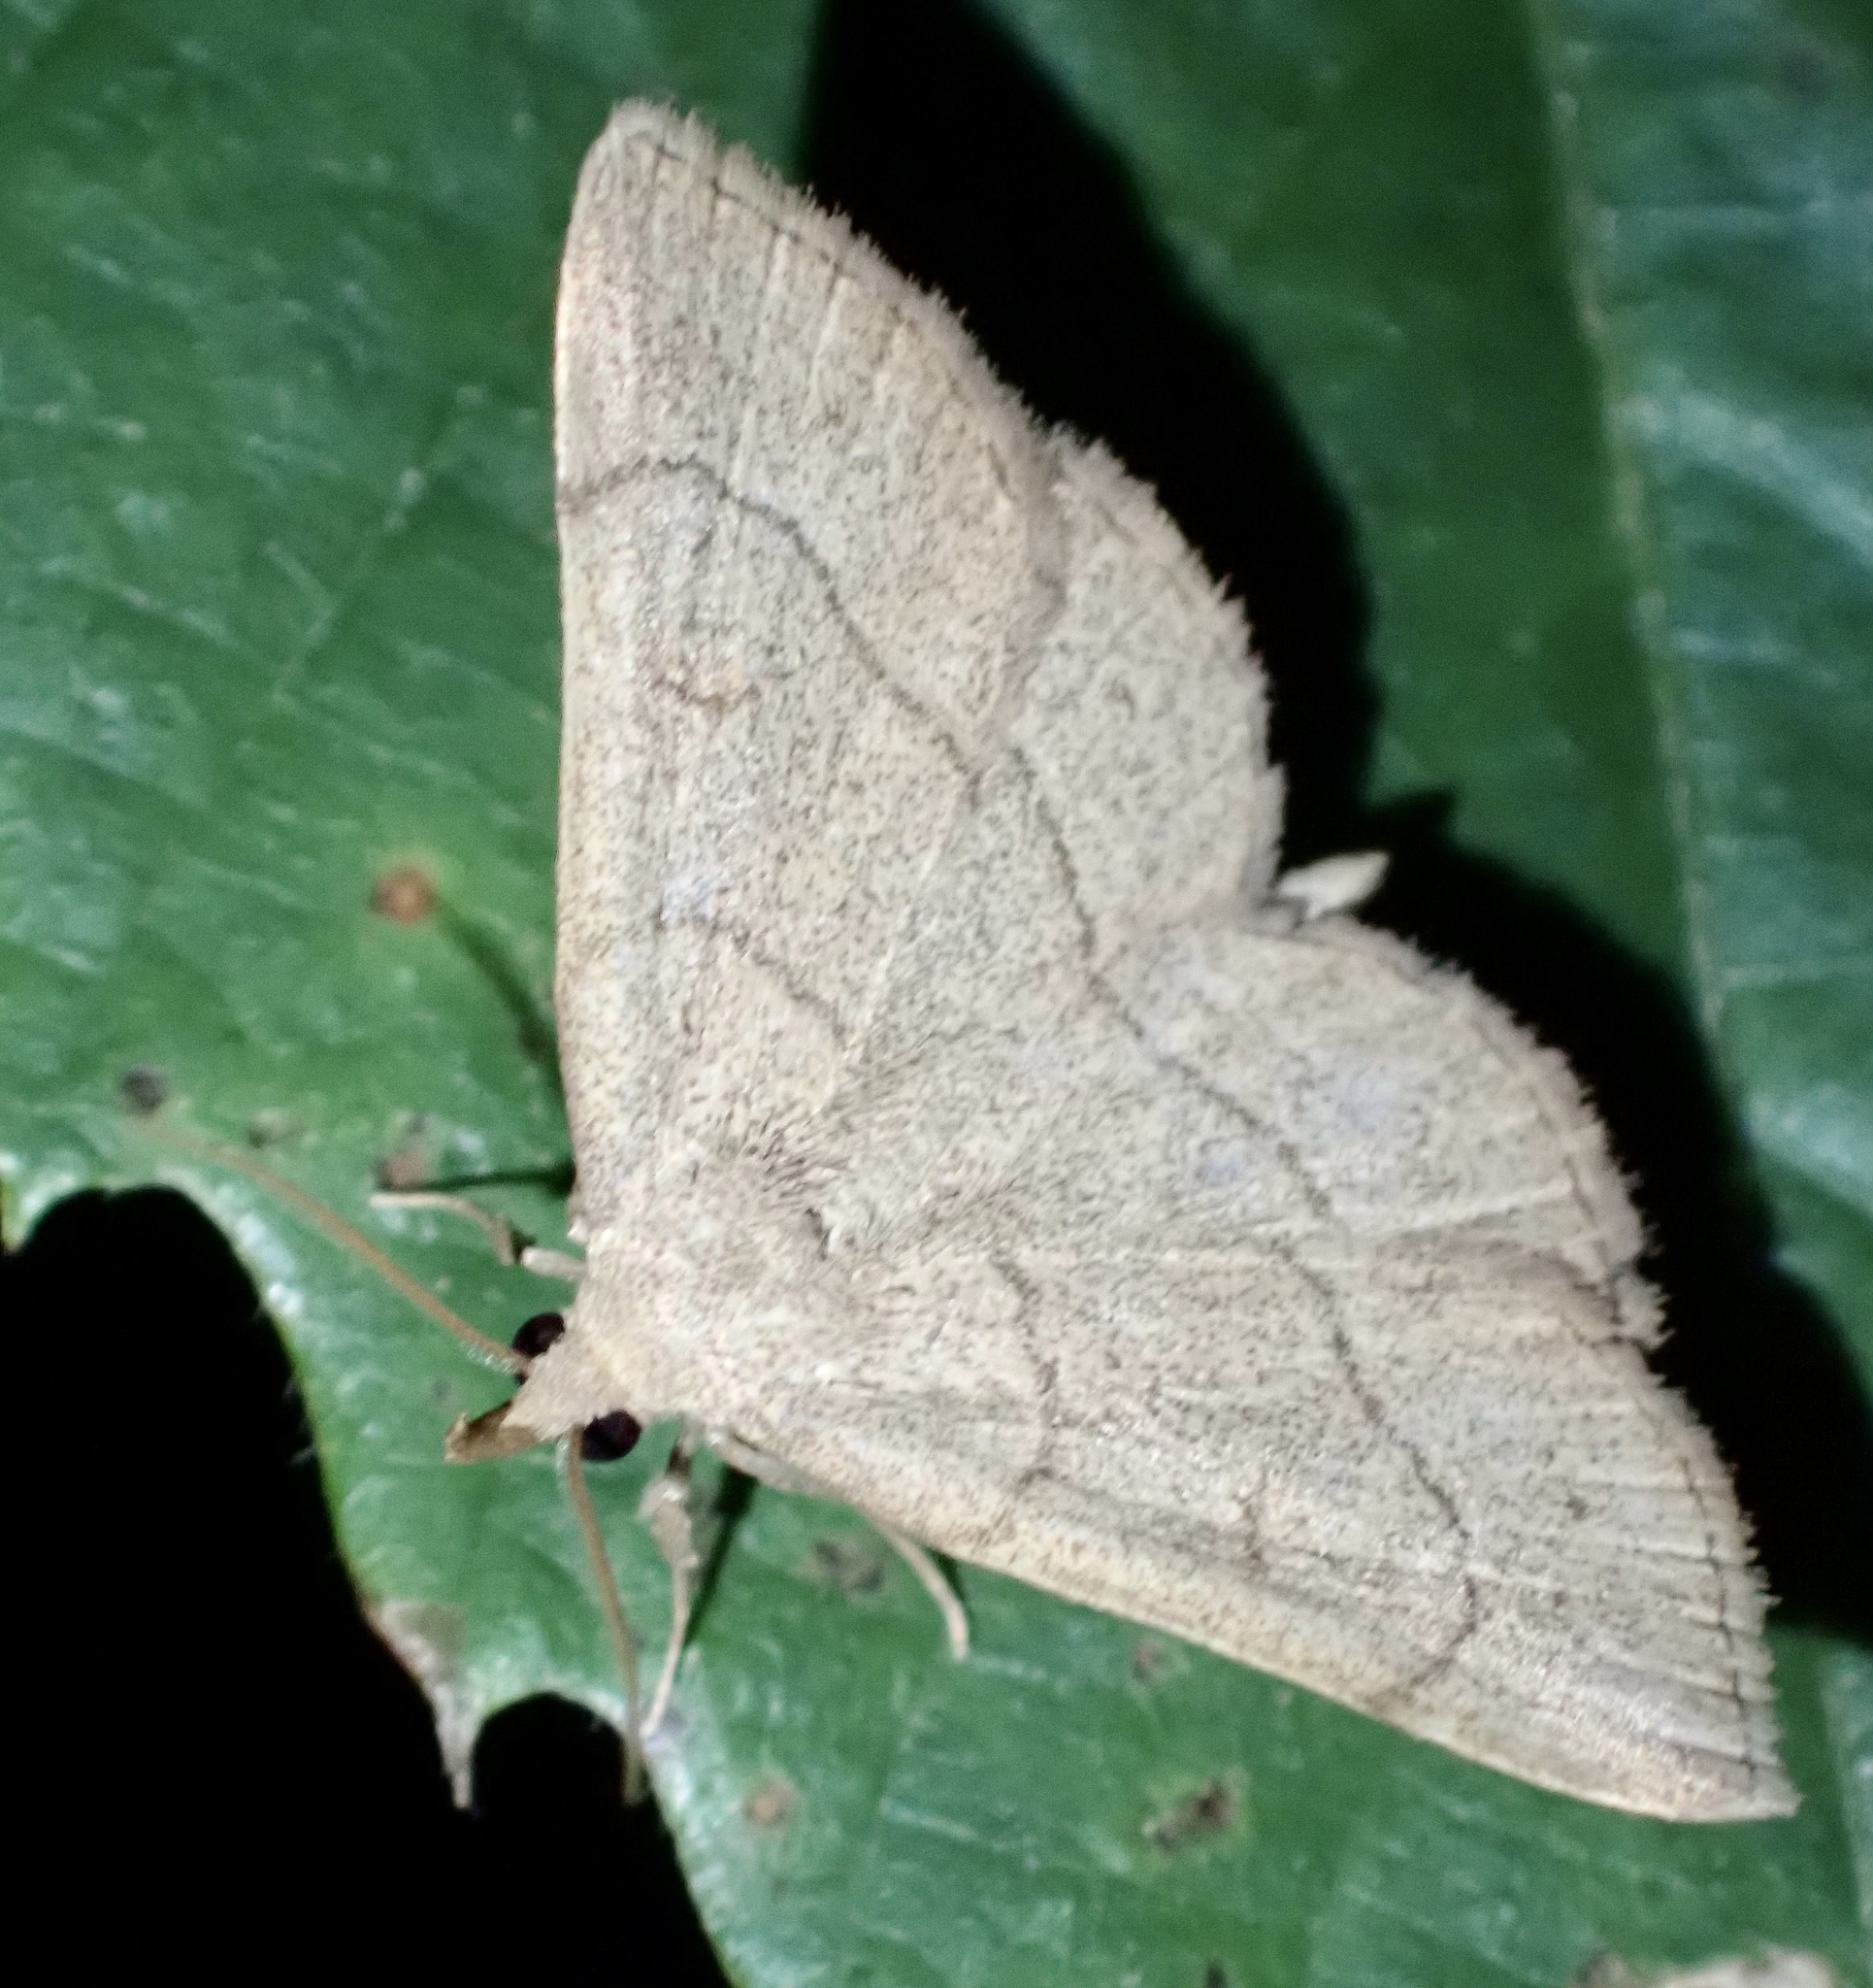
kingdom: Animalia
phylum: Arthropoda
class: Insecta
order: Lepidoptera
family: Erebidae
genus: Paracolax
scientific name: Paracolax tristalis
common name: Clay fan-foot
